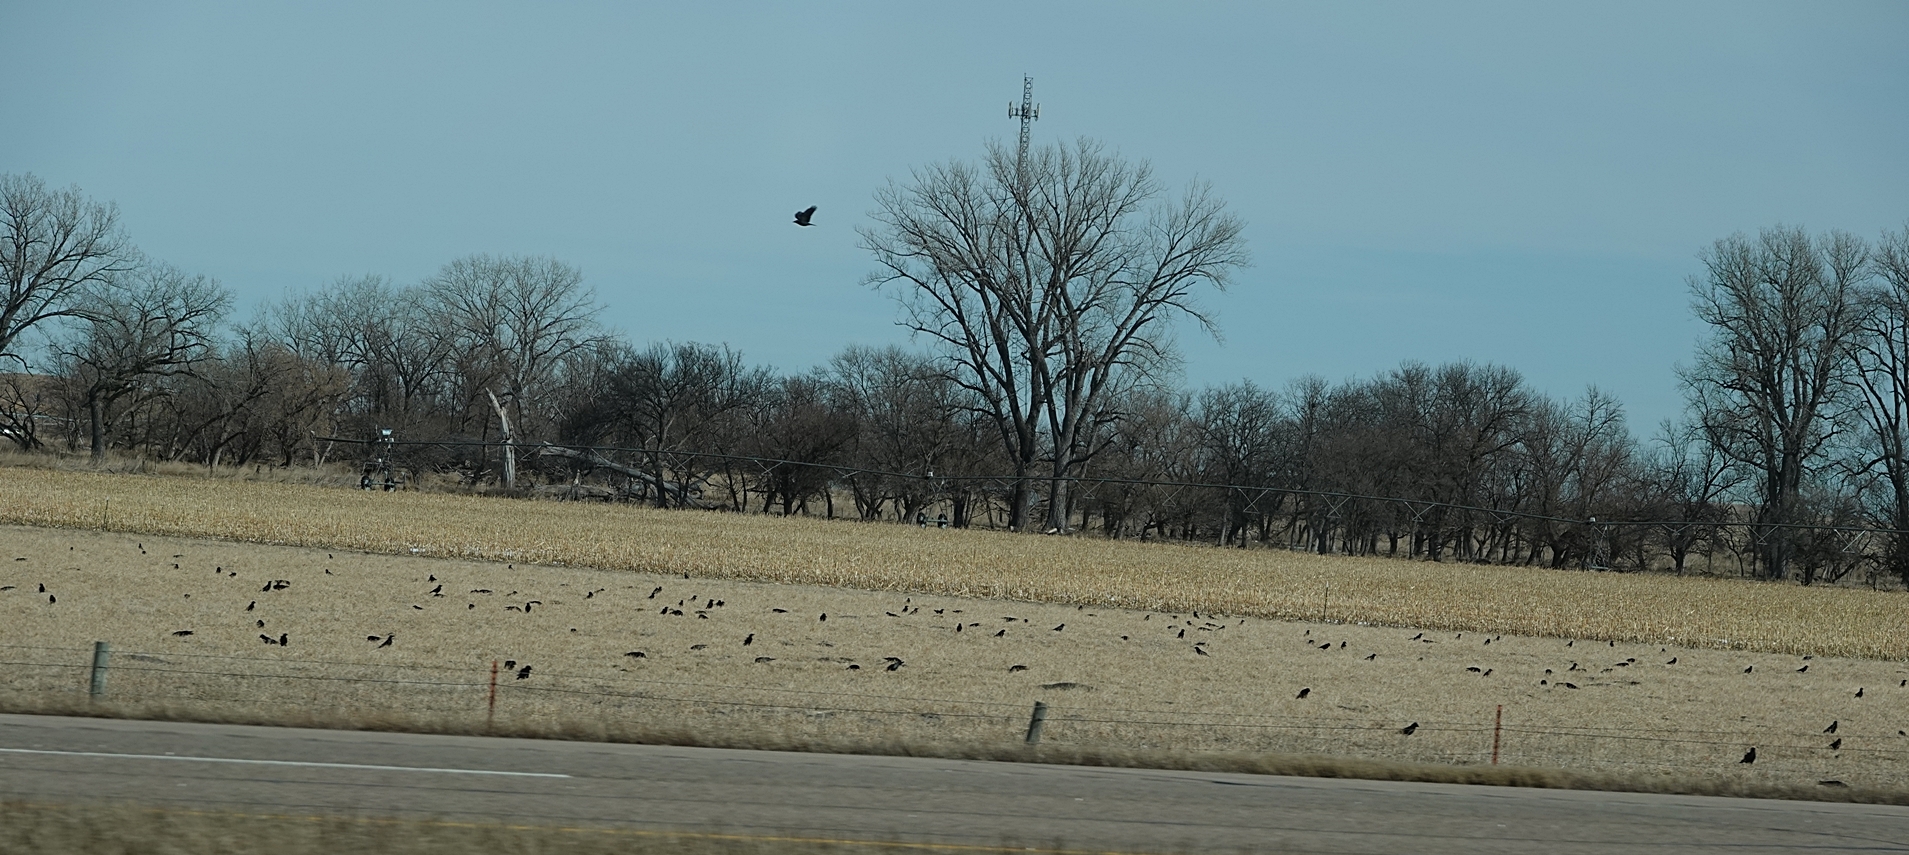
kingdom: Animalia
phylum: Chordata
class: Aves
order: Passeriformes
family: Corvidae
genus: Corvus
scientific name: Corvus brachyrhynchos
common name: American crow
